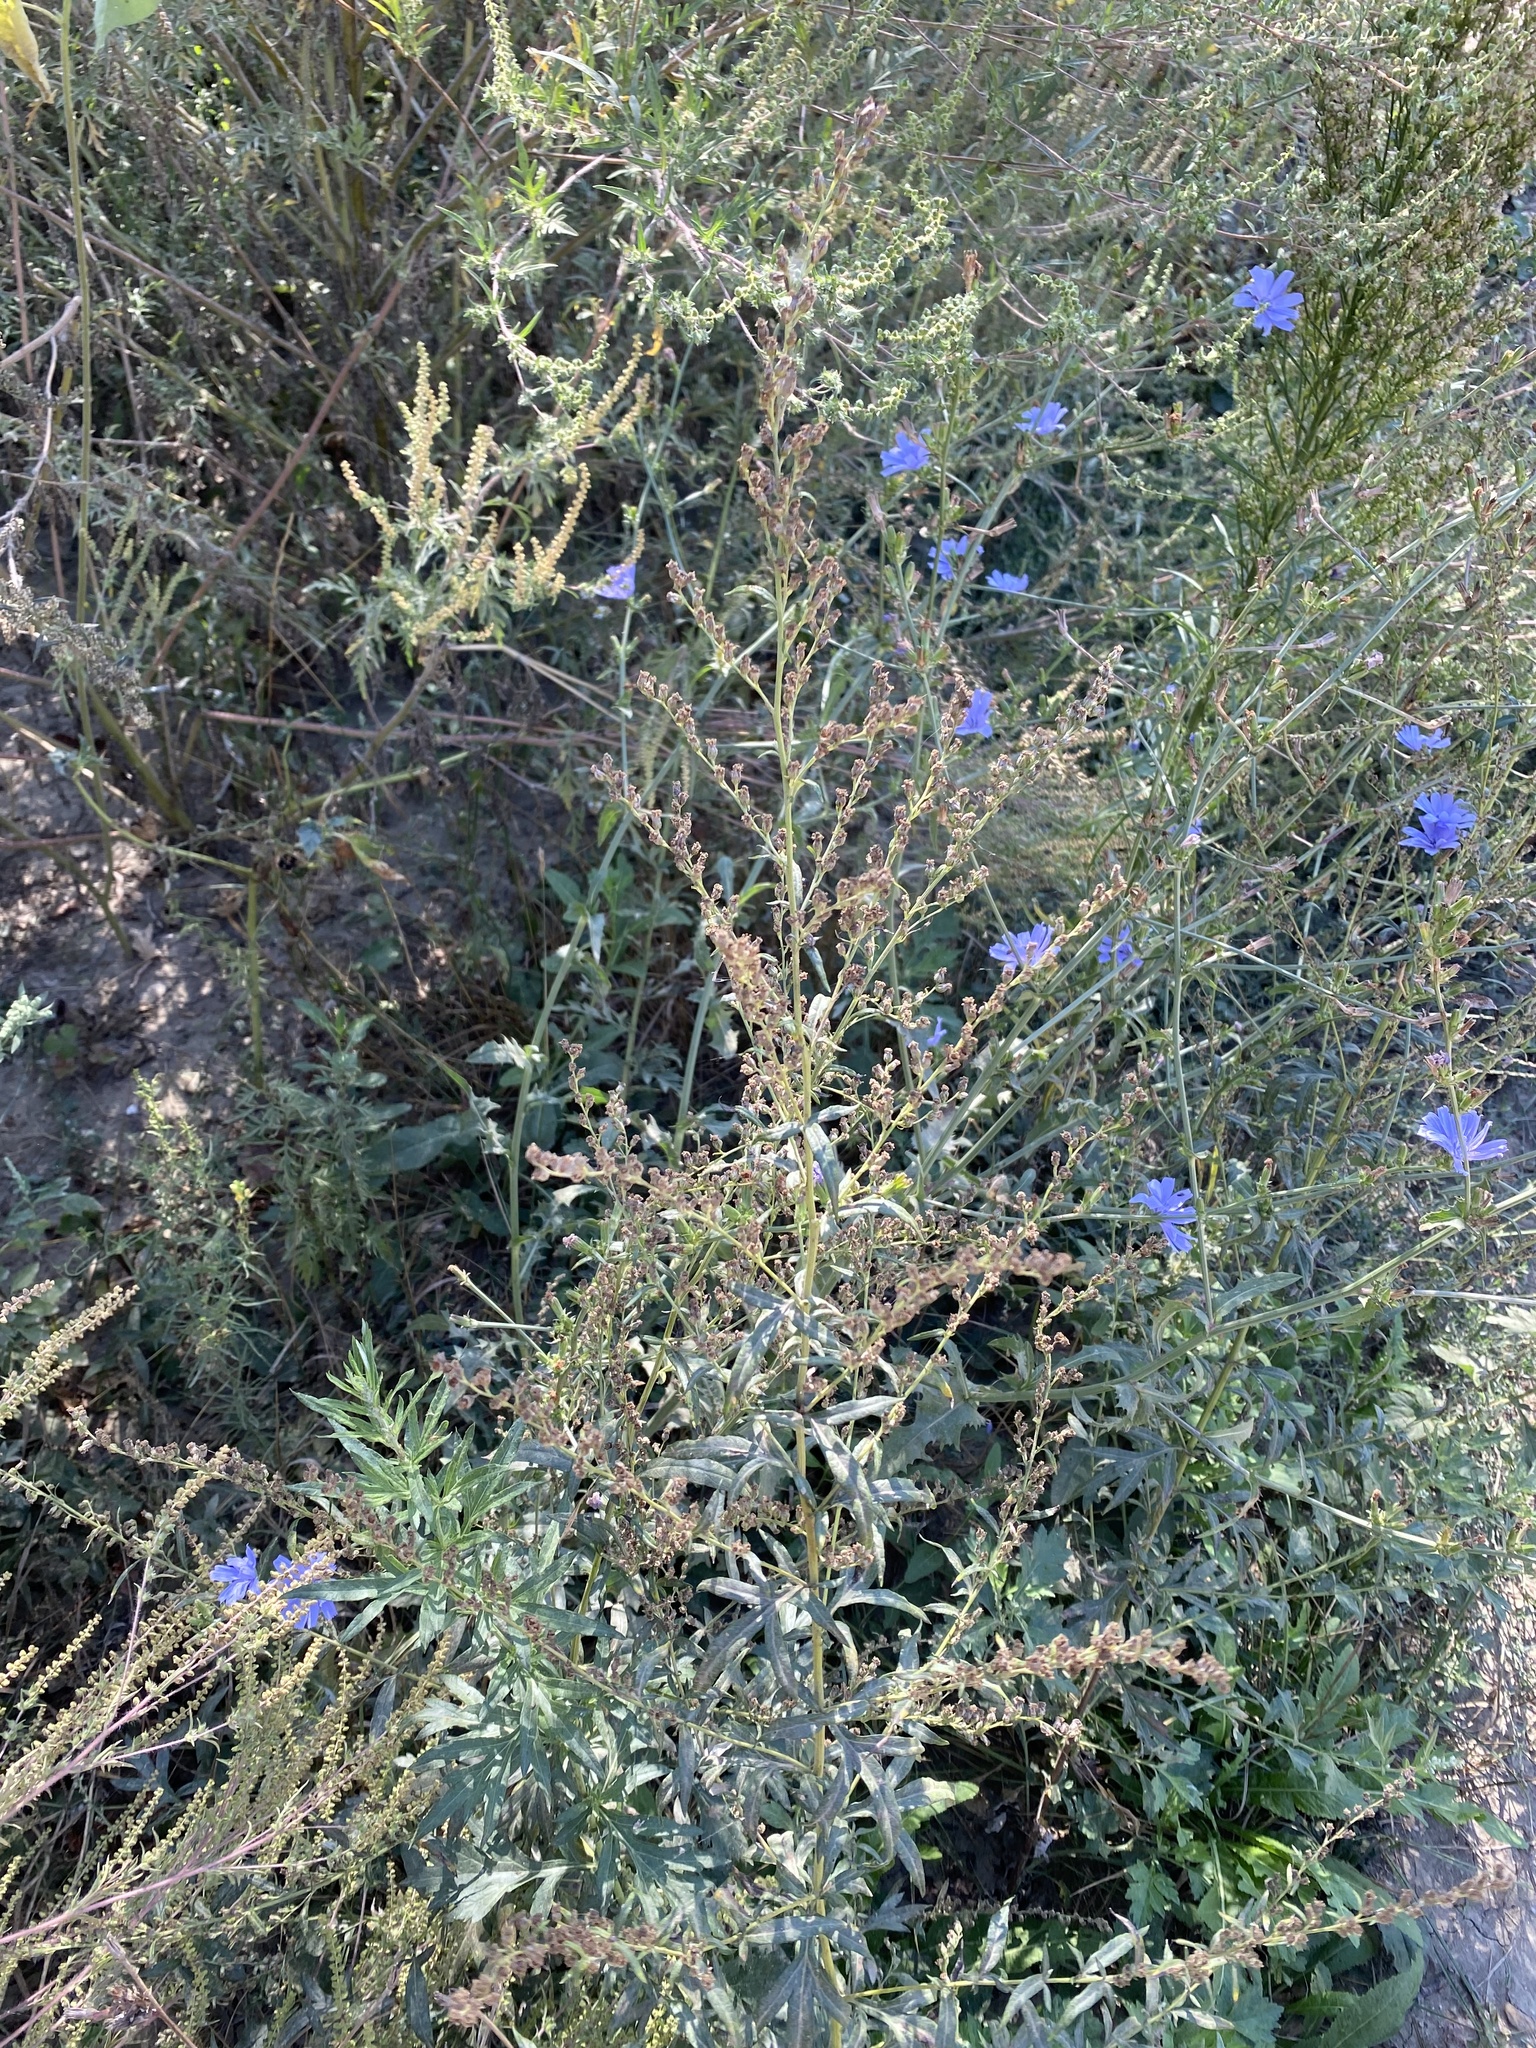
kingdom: Plantae
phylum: Tracheophyta
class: Magnoliopsida
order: Asterales
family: Asteraceae
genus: Artemisia
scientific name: Artemisia vulgaris
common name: Mugwort
